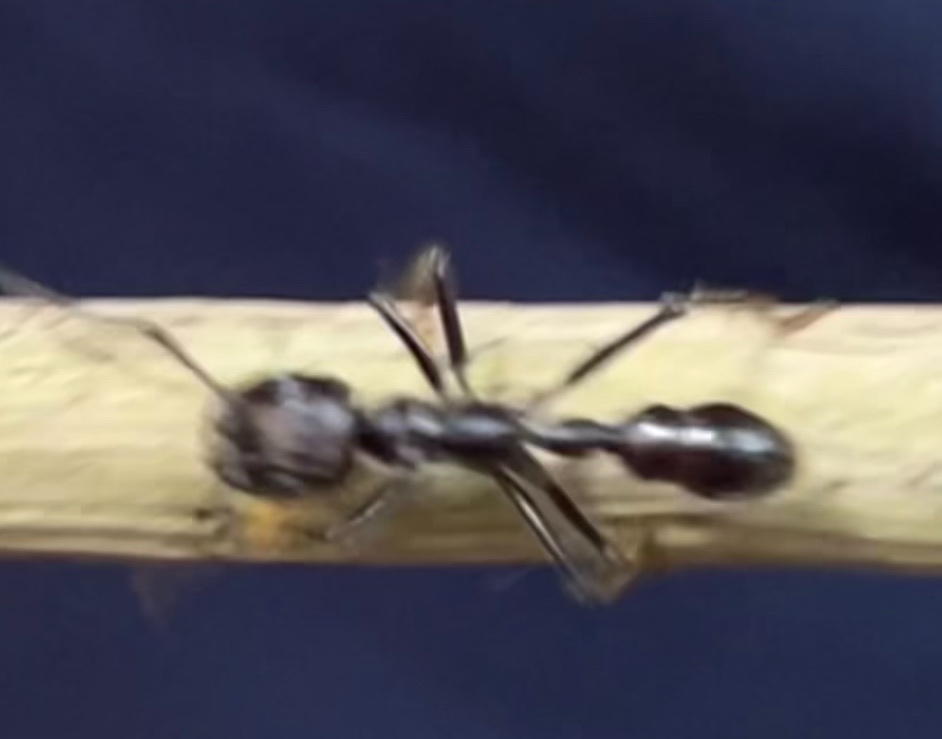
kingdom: Animalia
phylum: Arthropoda
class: Insecta
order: Hymenoptera
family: Formicidae
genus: Paraponera
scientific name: Paraponera clavata
